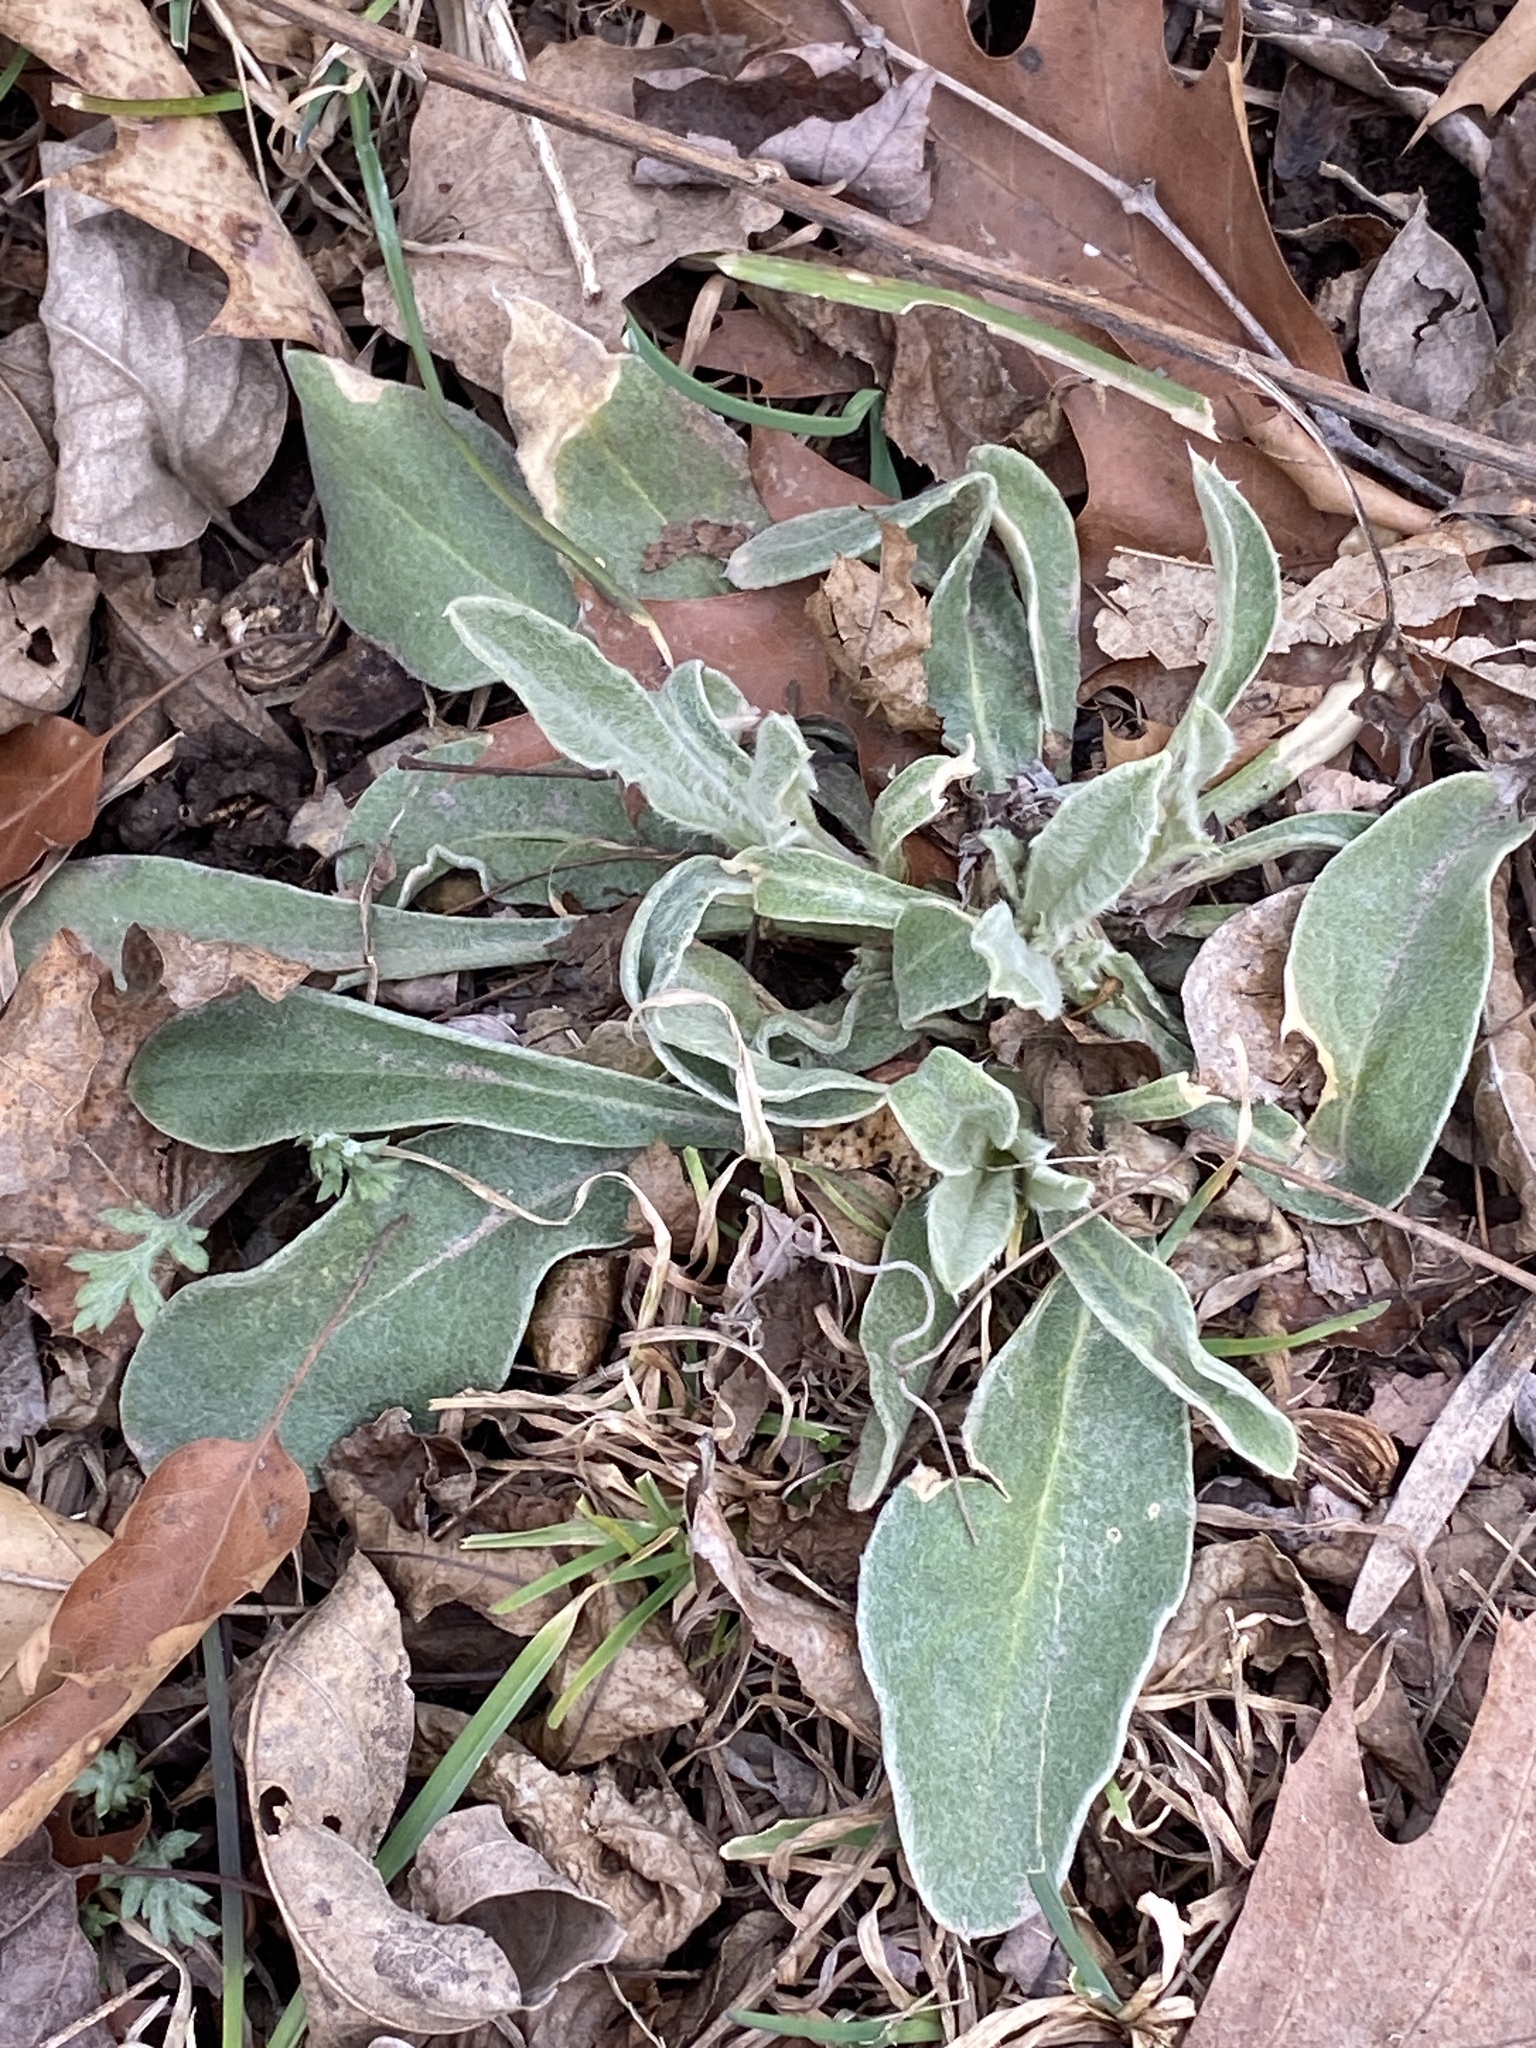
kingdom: Plantae
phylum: Tracheophyta
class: Magnoliopsida
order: Caryophyllales
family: Caryophyllaceae
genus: Silene
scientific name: Silene coronaria
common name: Rose campion
